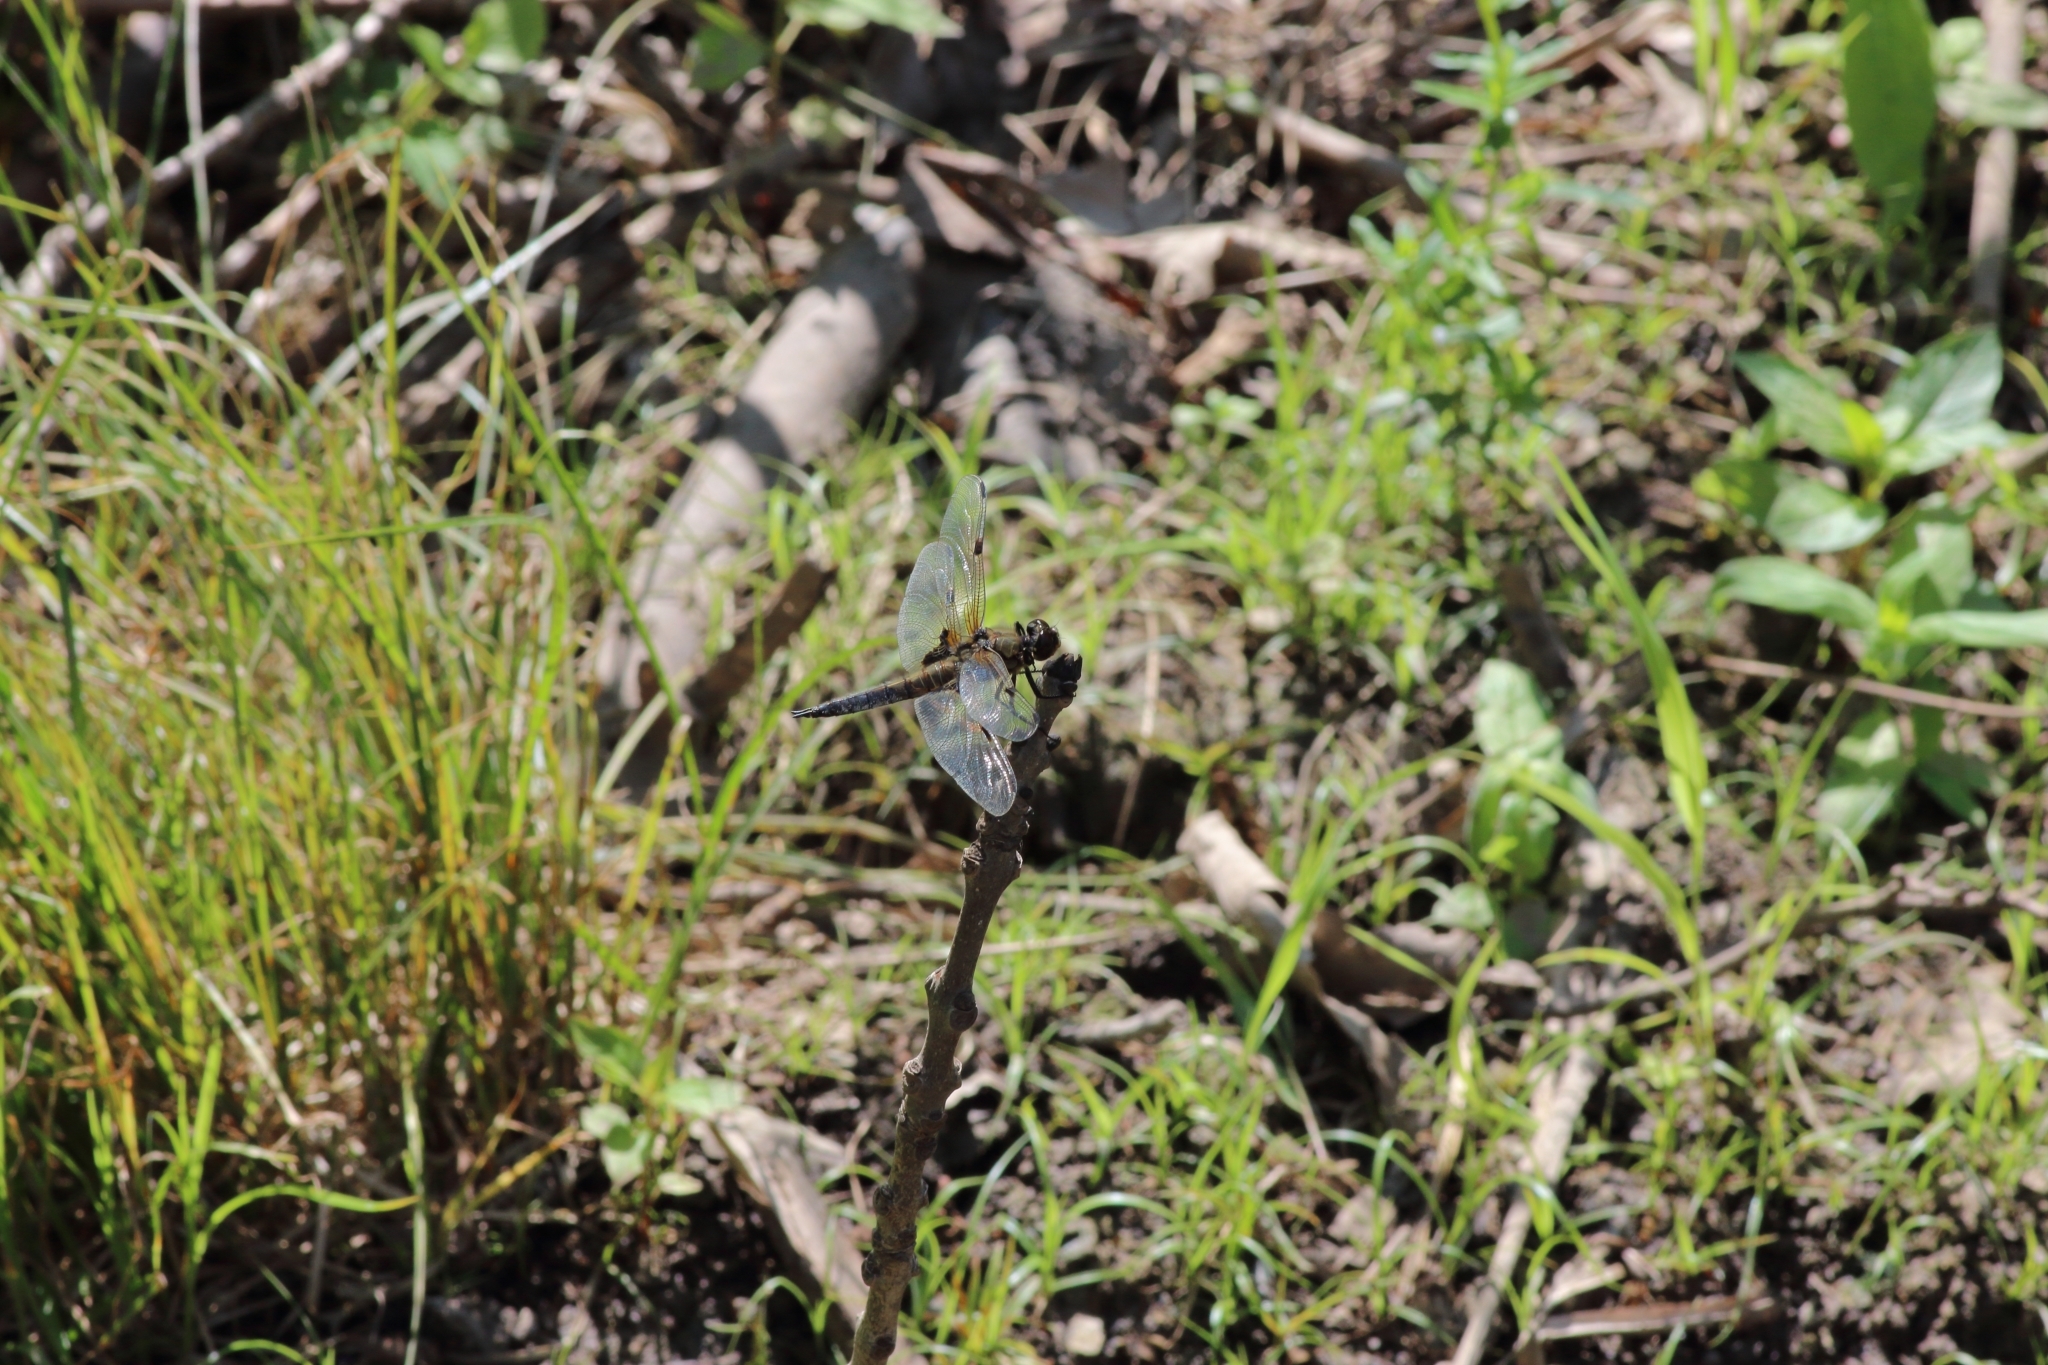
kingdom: Animalia
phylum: Arthropoda
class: Insecta
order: Odonata
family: Libellulidae
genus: Libellula
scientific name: Libellula quadrimaculata
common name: Four-spotted chaser
